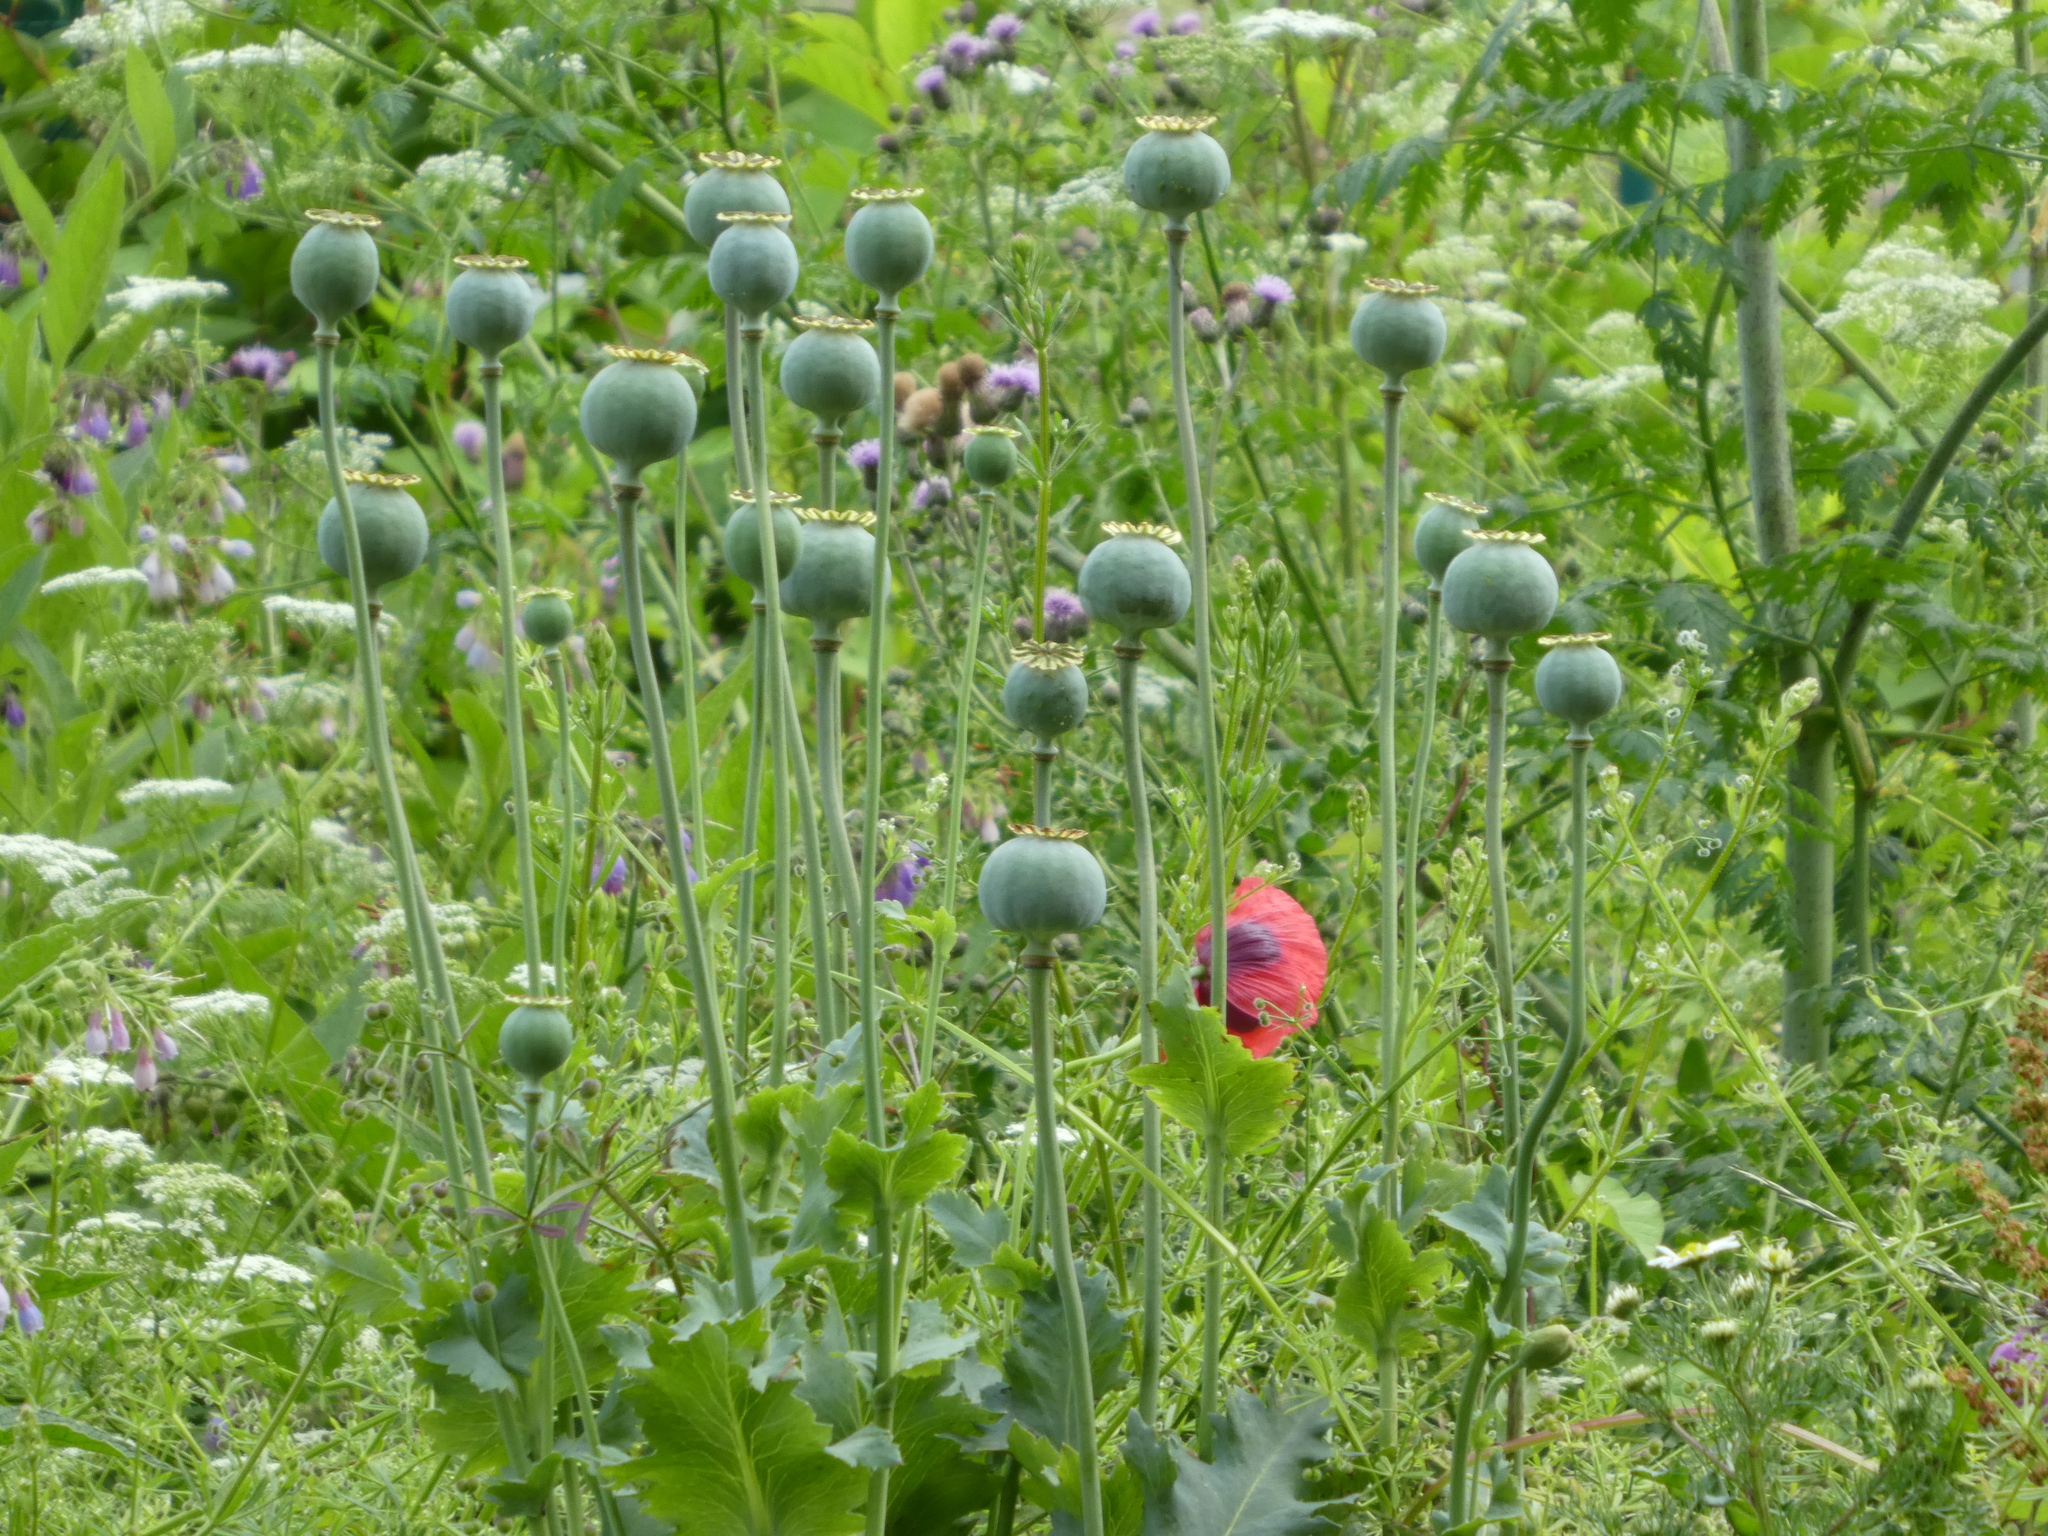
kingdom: Plantae
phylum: Tracheophyta
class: Magnoliopsida
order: Ranunculales
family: Papaveraceae
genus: Papaver
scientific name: Papaver somniferum
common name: Opium poppy
